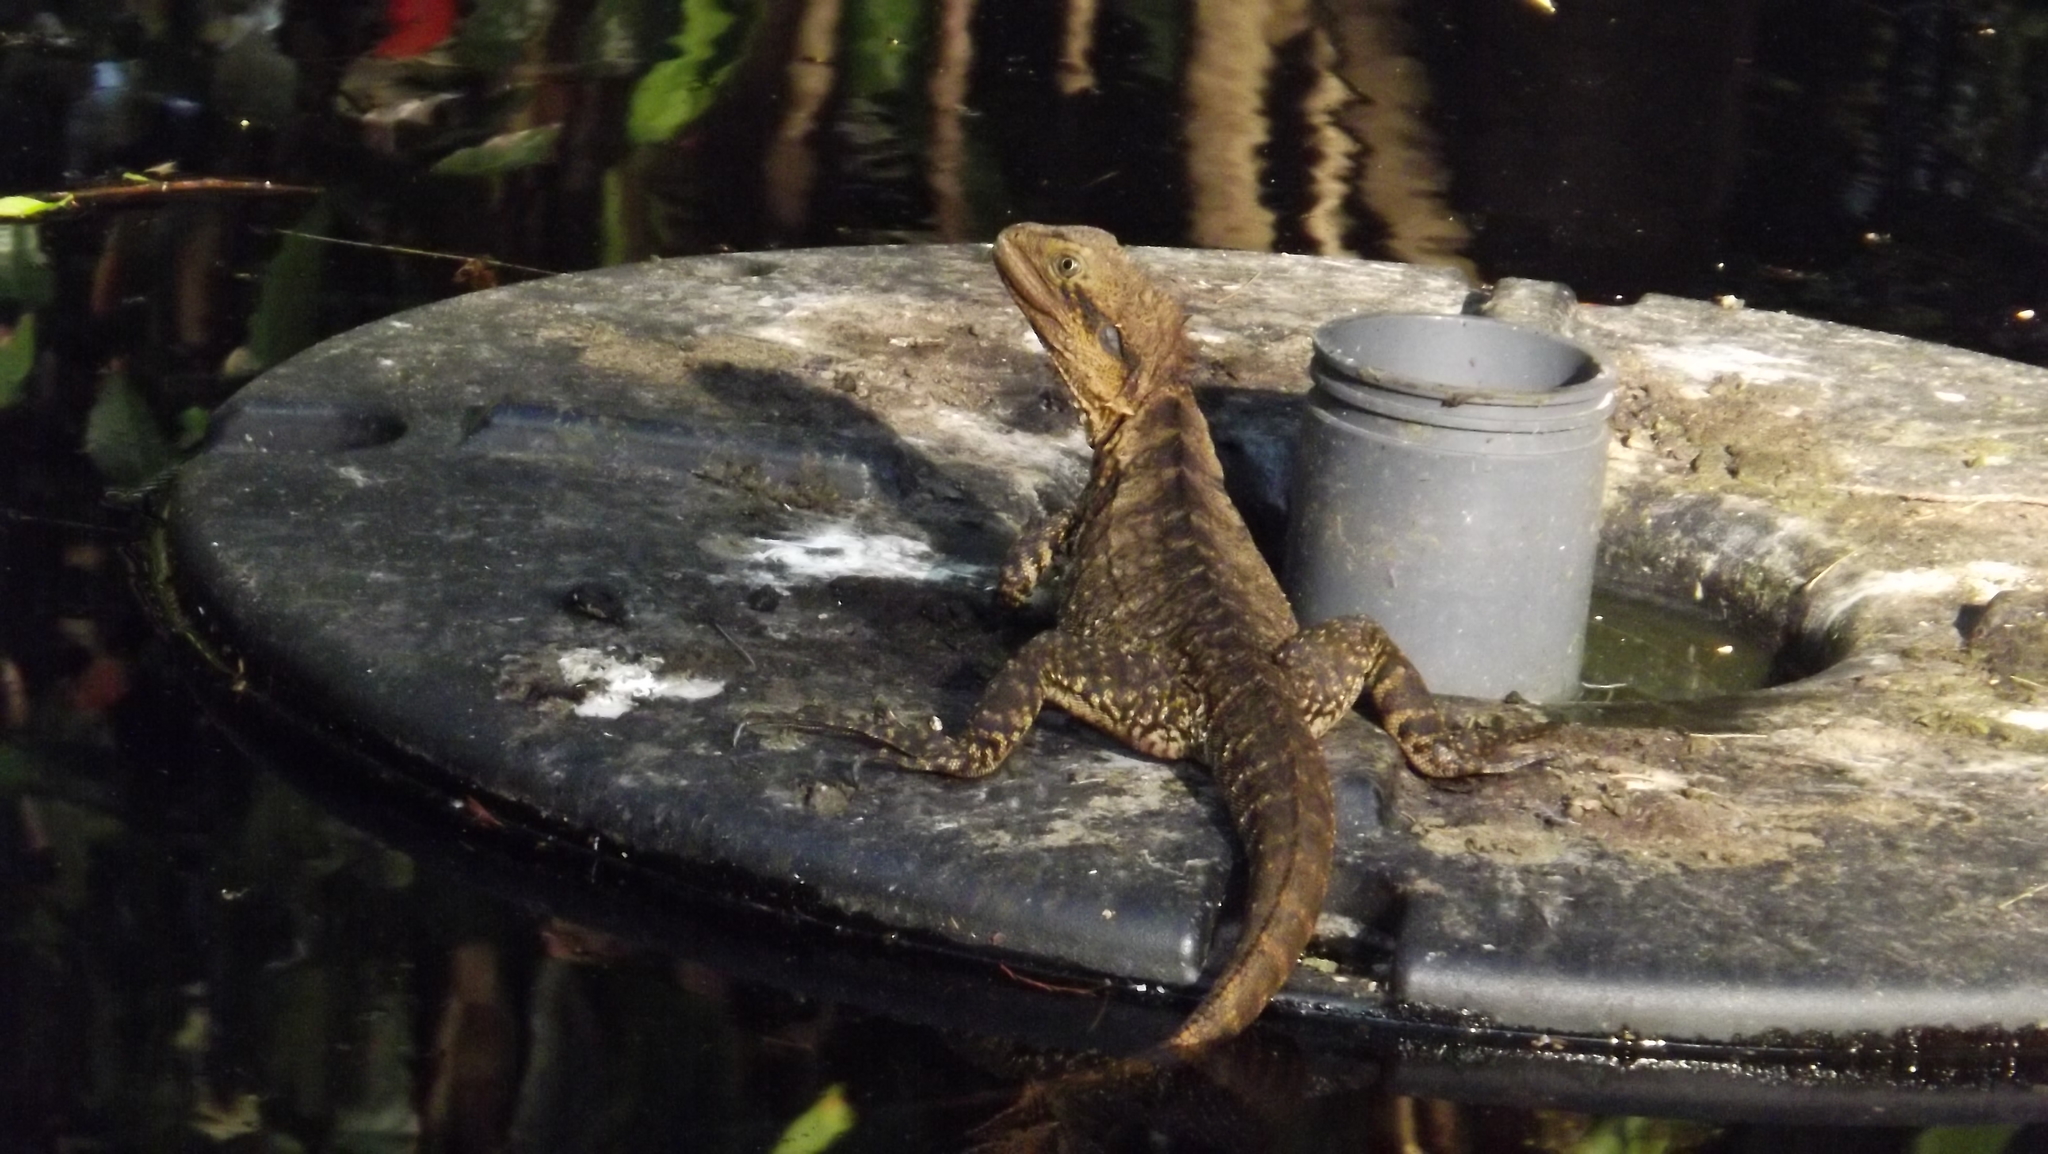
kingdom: Animalia
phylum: Chordata
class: Squamata
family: Agamidae
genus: Intellagama
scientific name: Intellagama lesueurii
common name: Eastern water dragon
